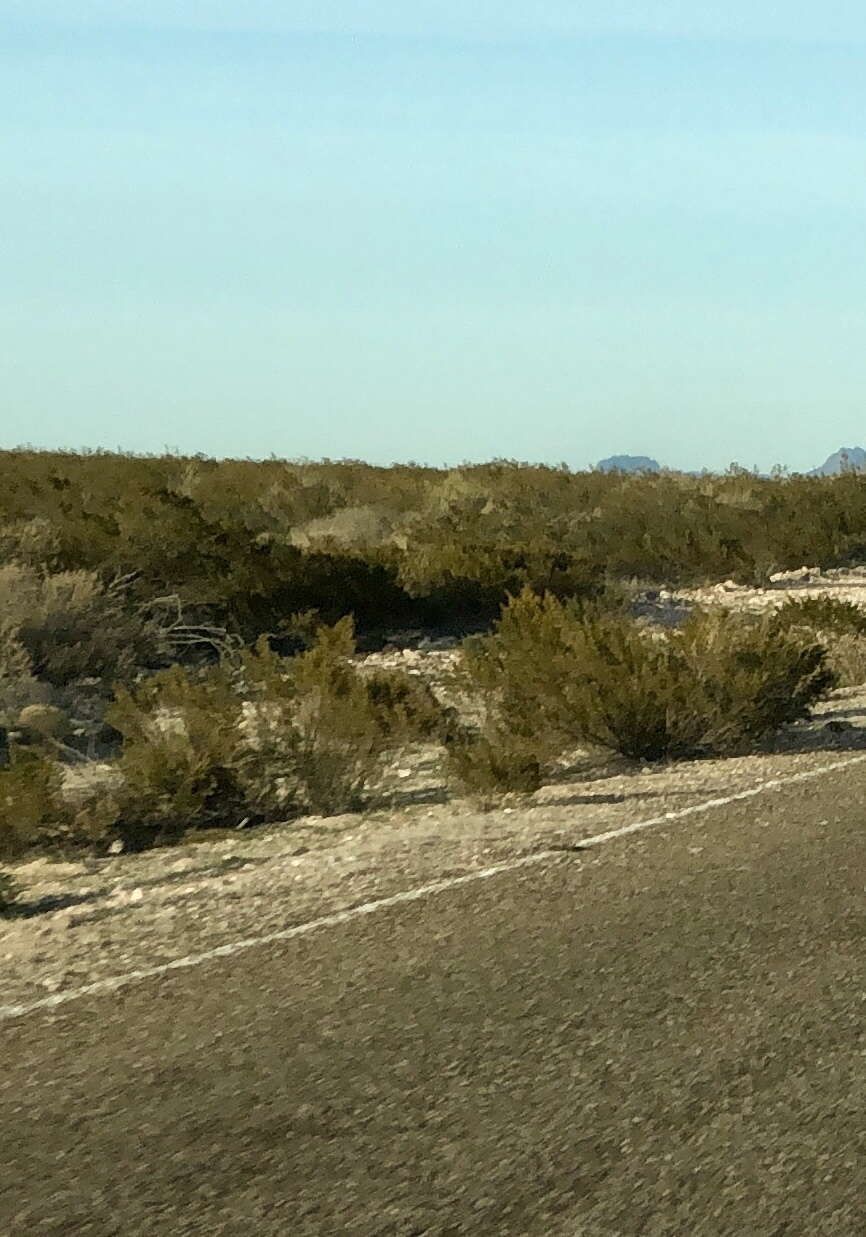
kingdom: Plantae
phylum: Tracheophyta
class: Magnoliopsida
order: Zygophyllales
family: Zygophyllaceae
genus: Larrea
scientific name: Larrea tridentata
